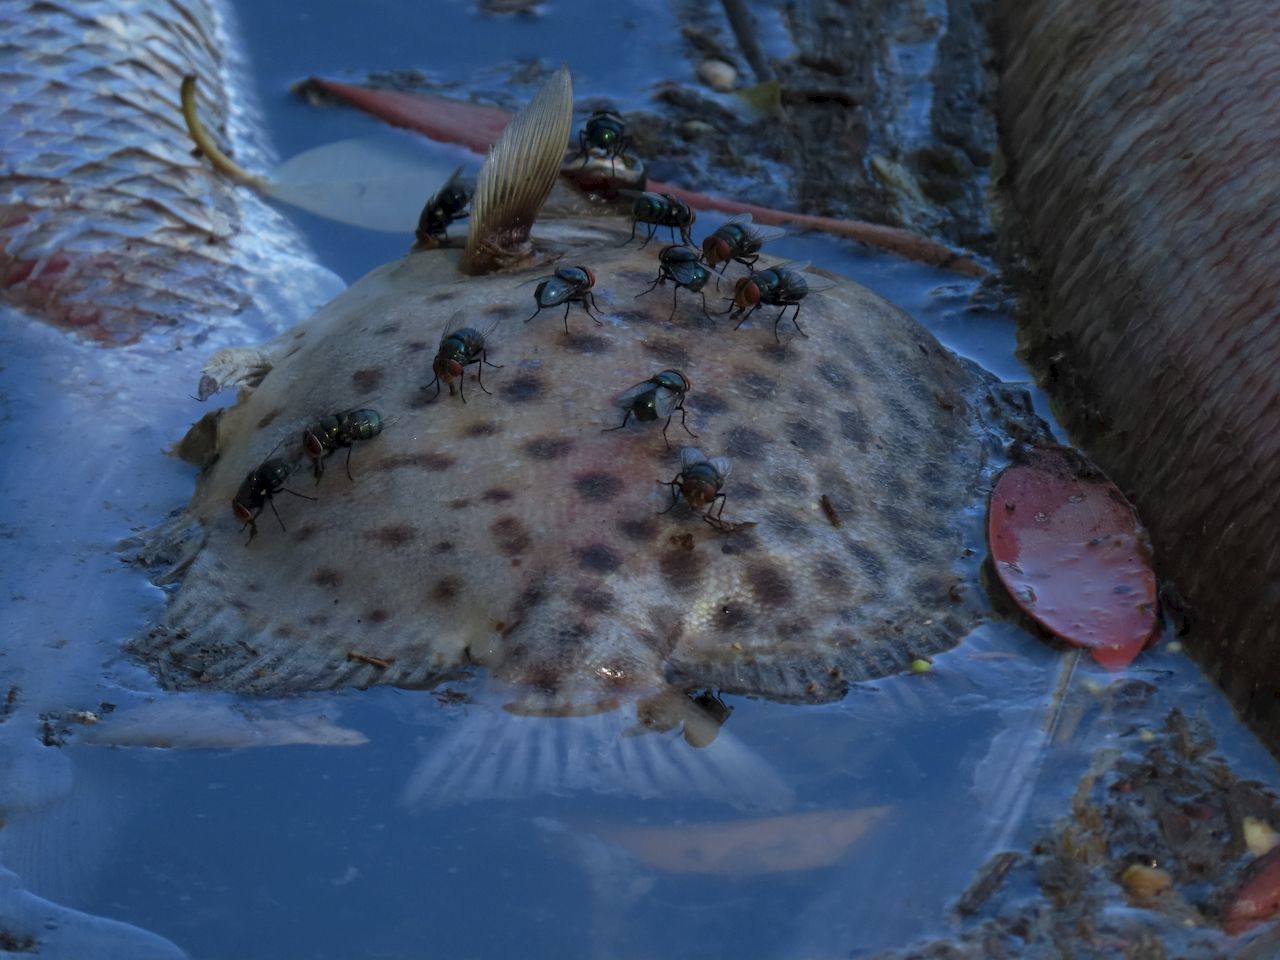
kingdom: Animalia
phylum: Chordata
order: Perciformes
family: Scatophagidae
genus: Scatophagus
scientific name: Scatophagus argus
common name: Spotted scat
